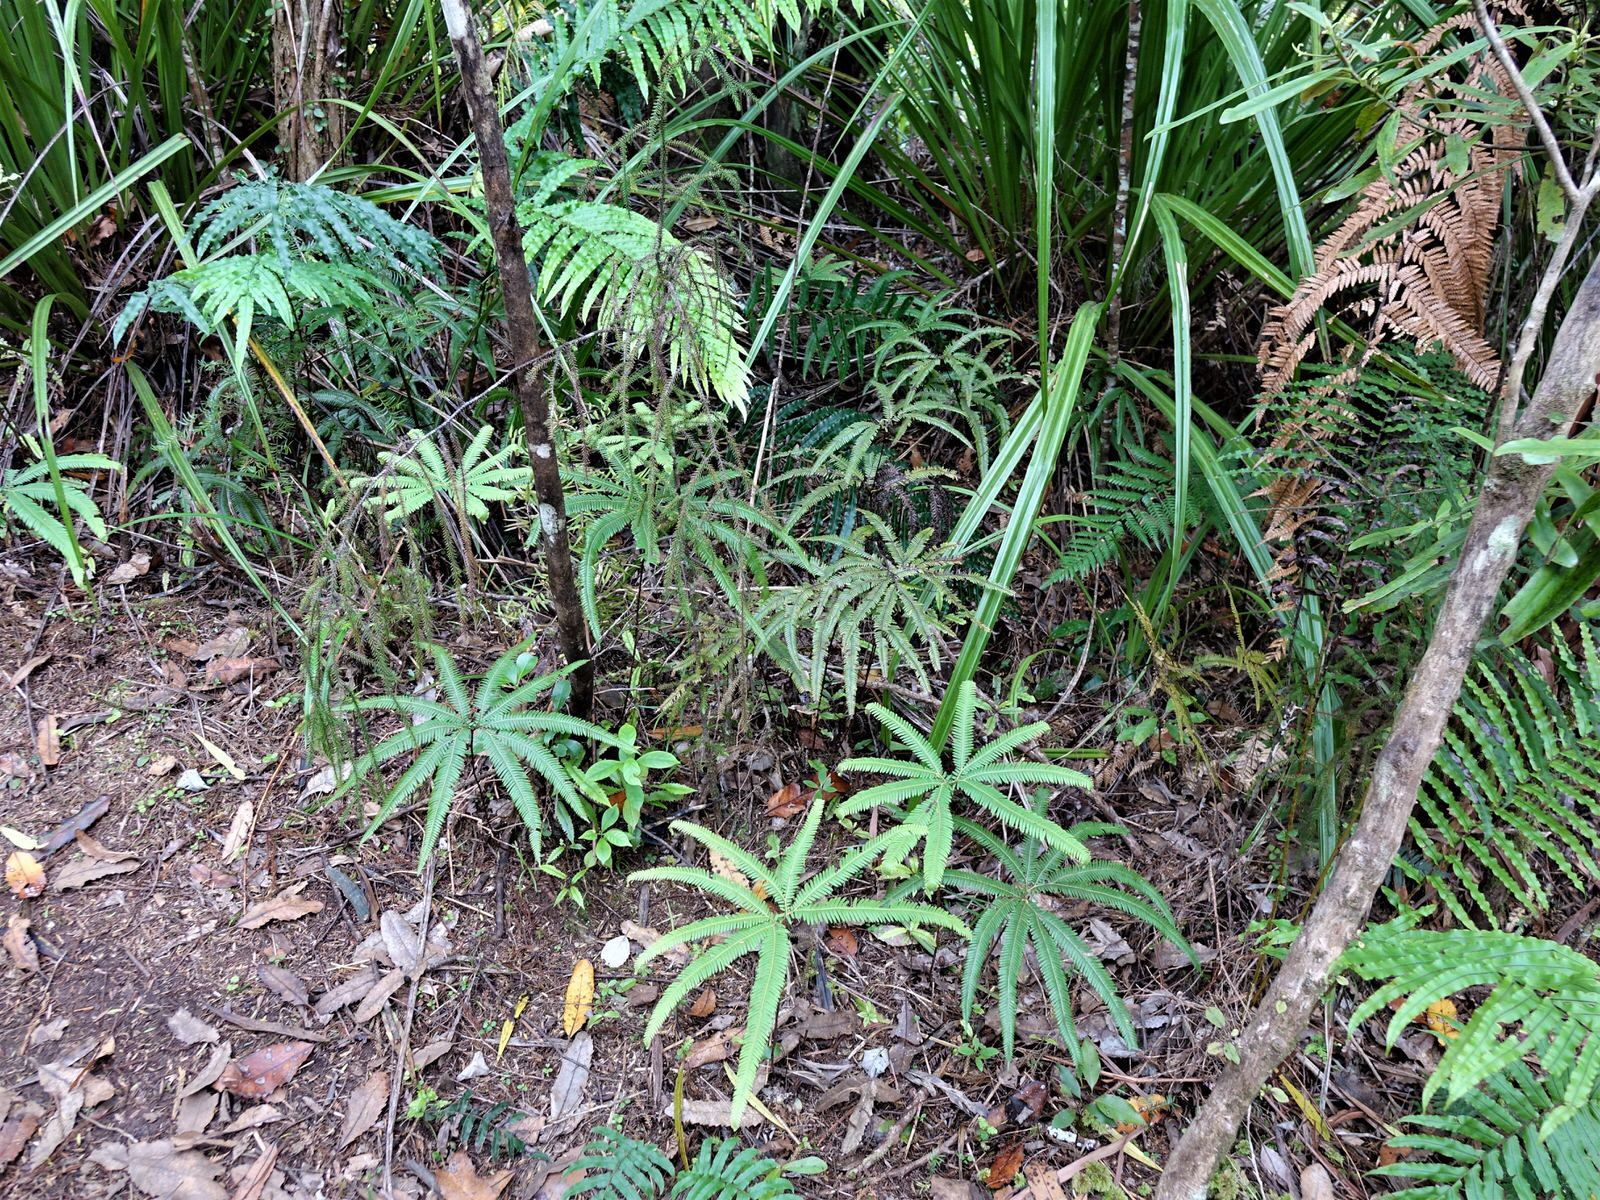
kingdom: Plantae
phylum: Tracheophyta
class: Polypodiopsida
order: Gleicheniales
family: Gleicheniaceae
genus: Sticherus
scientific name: Sticherus cunninghamii
